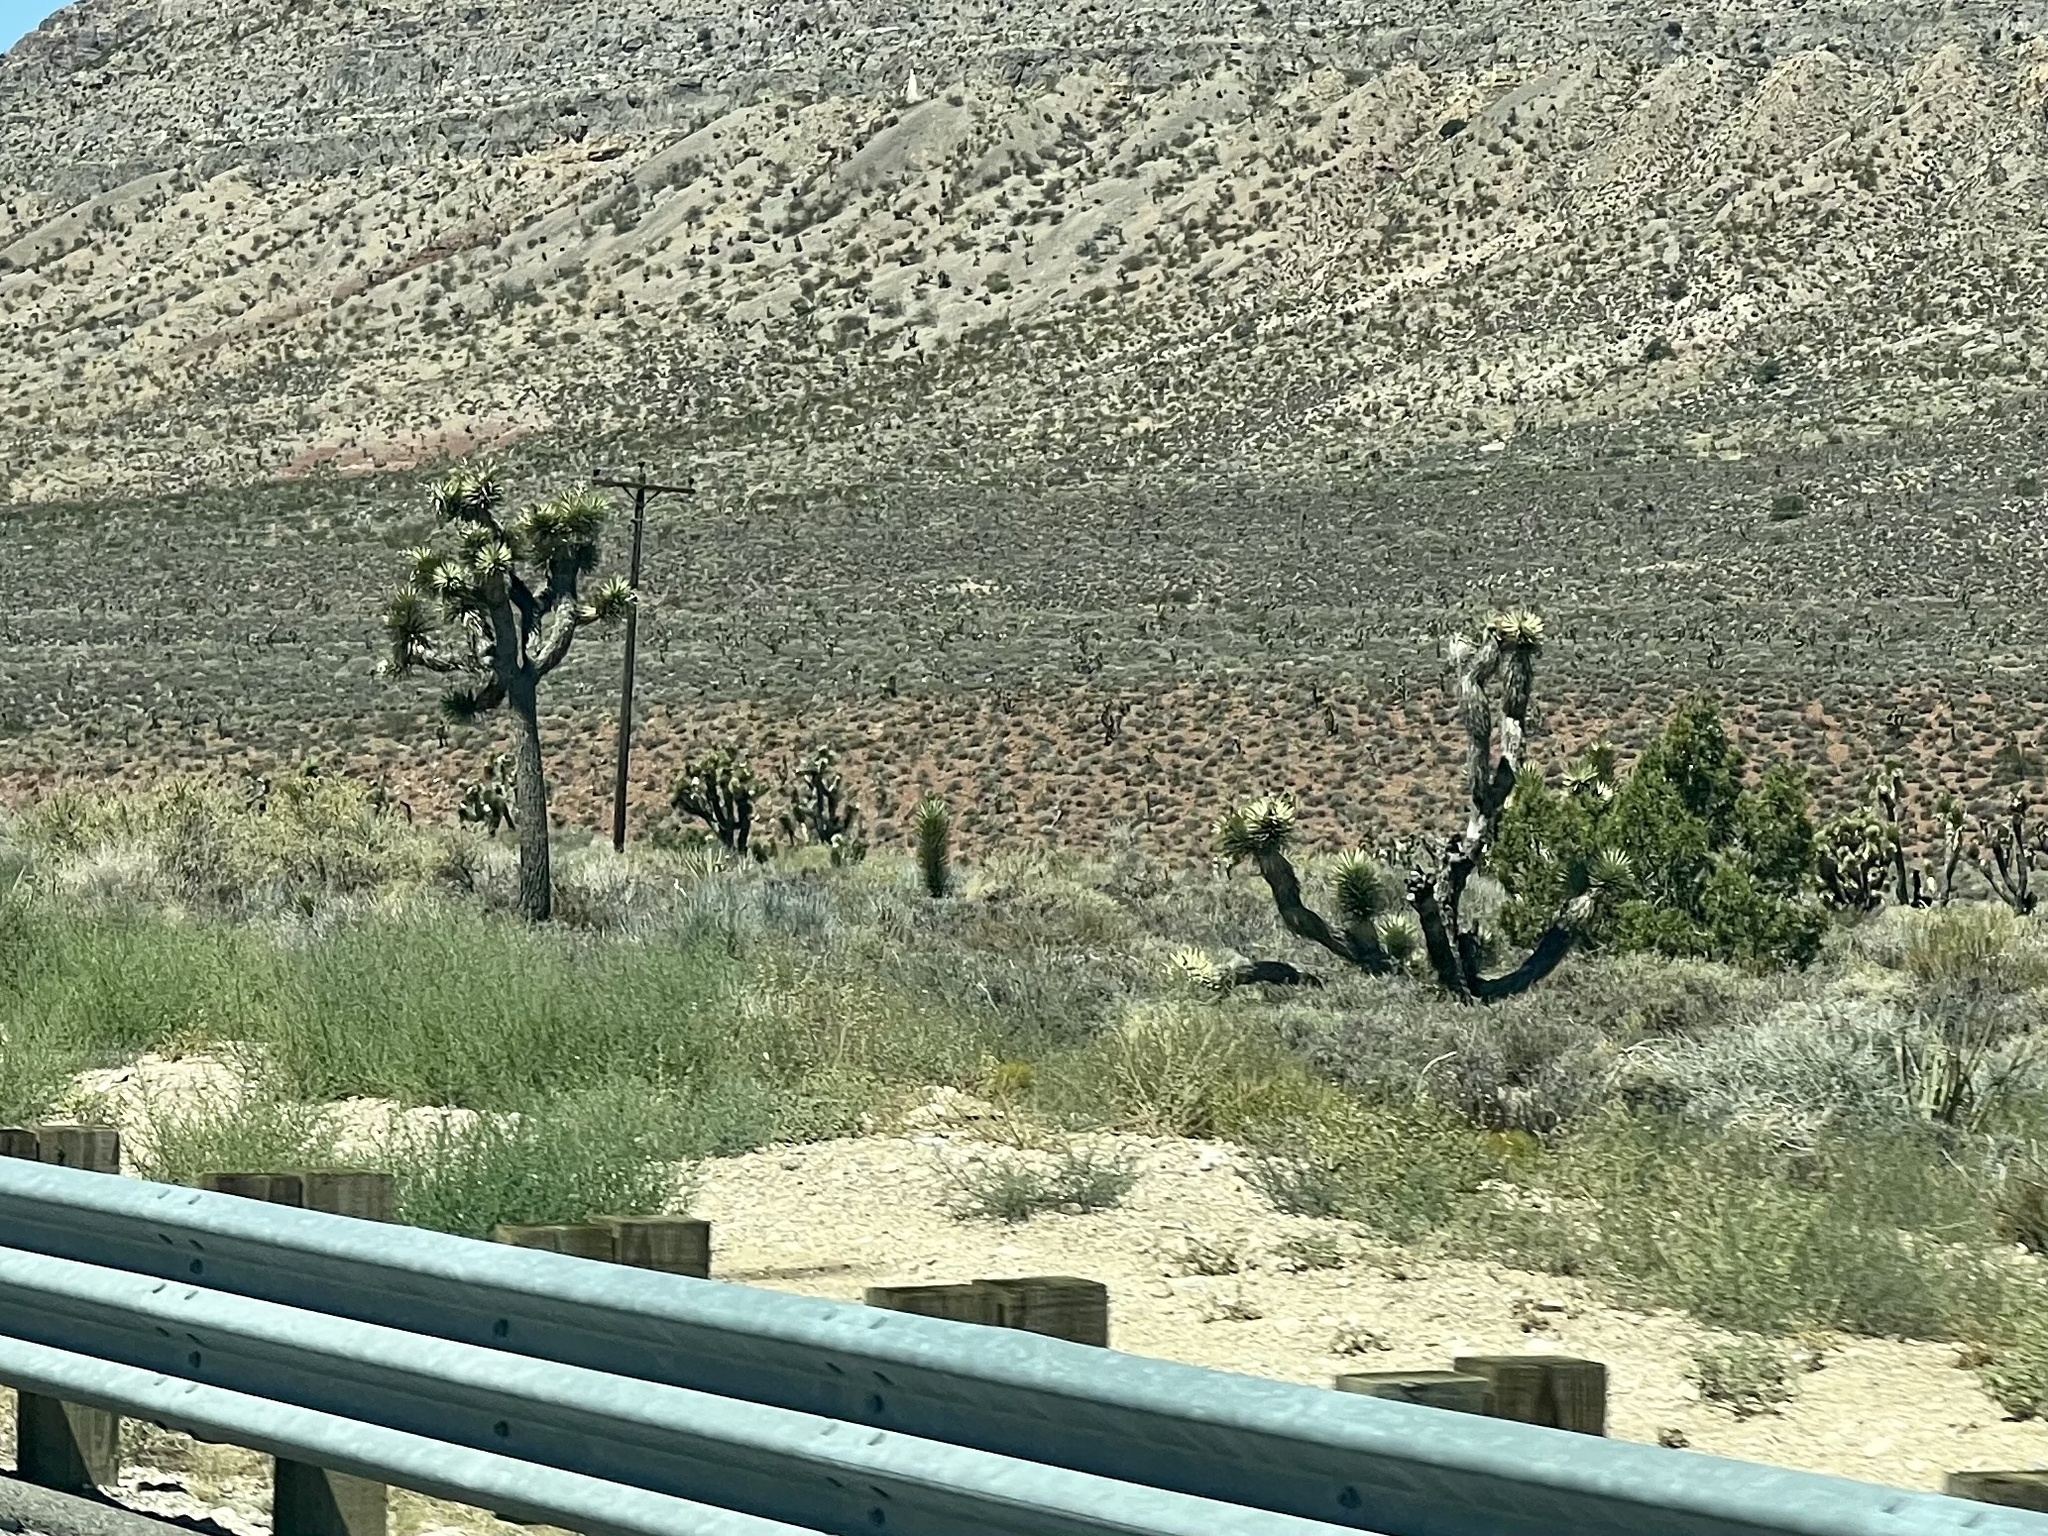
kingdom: Plantae
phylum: Tracheophyta
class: Liliopsida
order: Asparagales
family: Asparagaceae
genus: Yucca
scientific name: Yucca brevifolia
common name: Joshua tree
